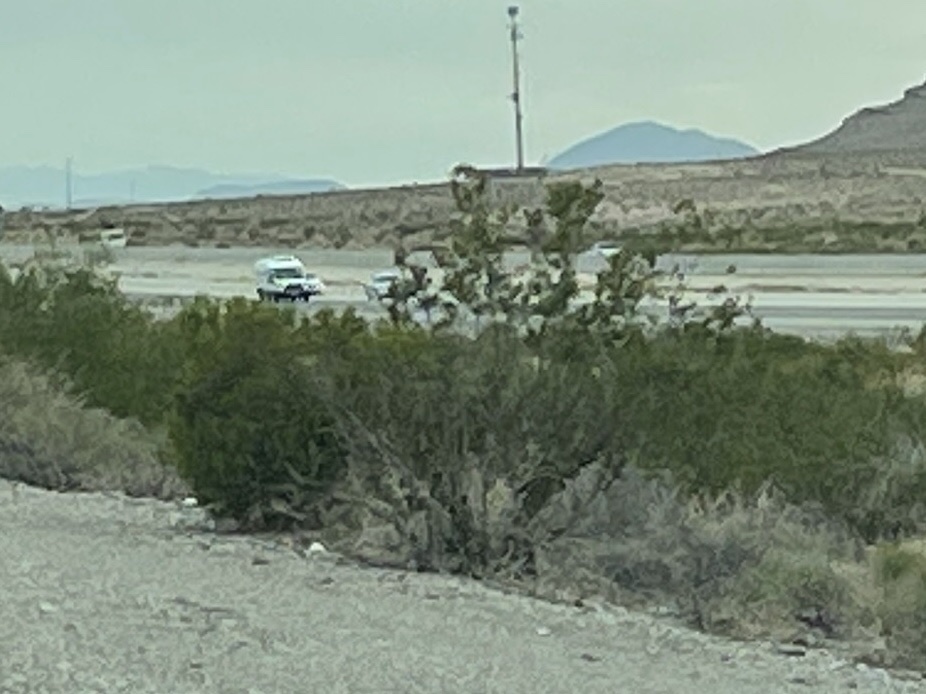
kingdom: Plantae
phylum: Tracheophyta
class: Magnoliopsida
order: Zygophyllales
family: Zygophyllaceae
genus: Larrea
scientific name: Larrea tridentata
